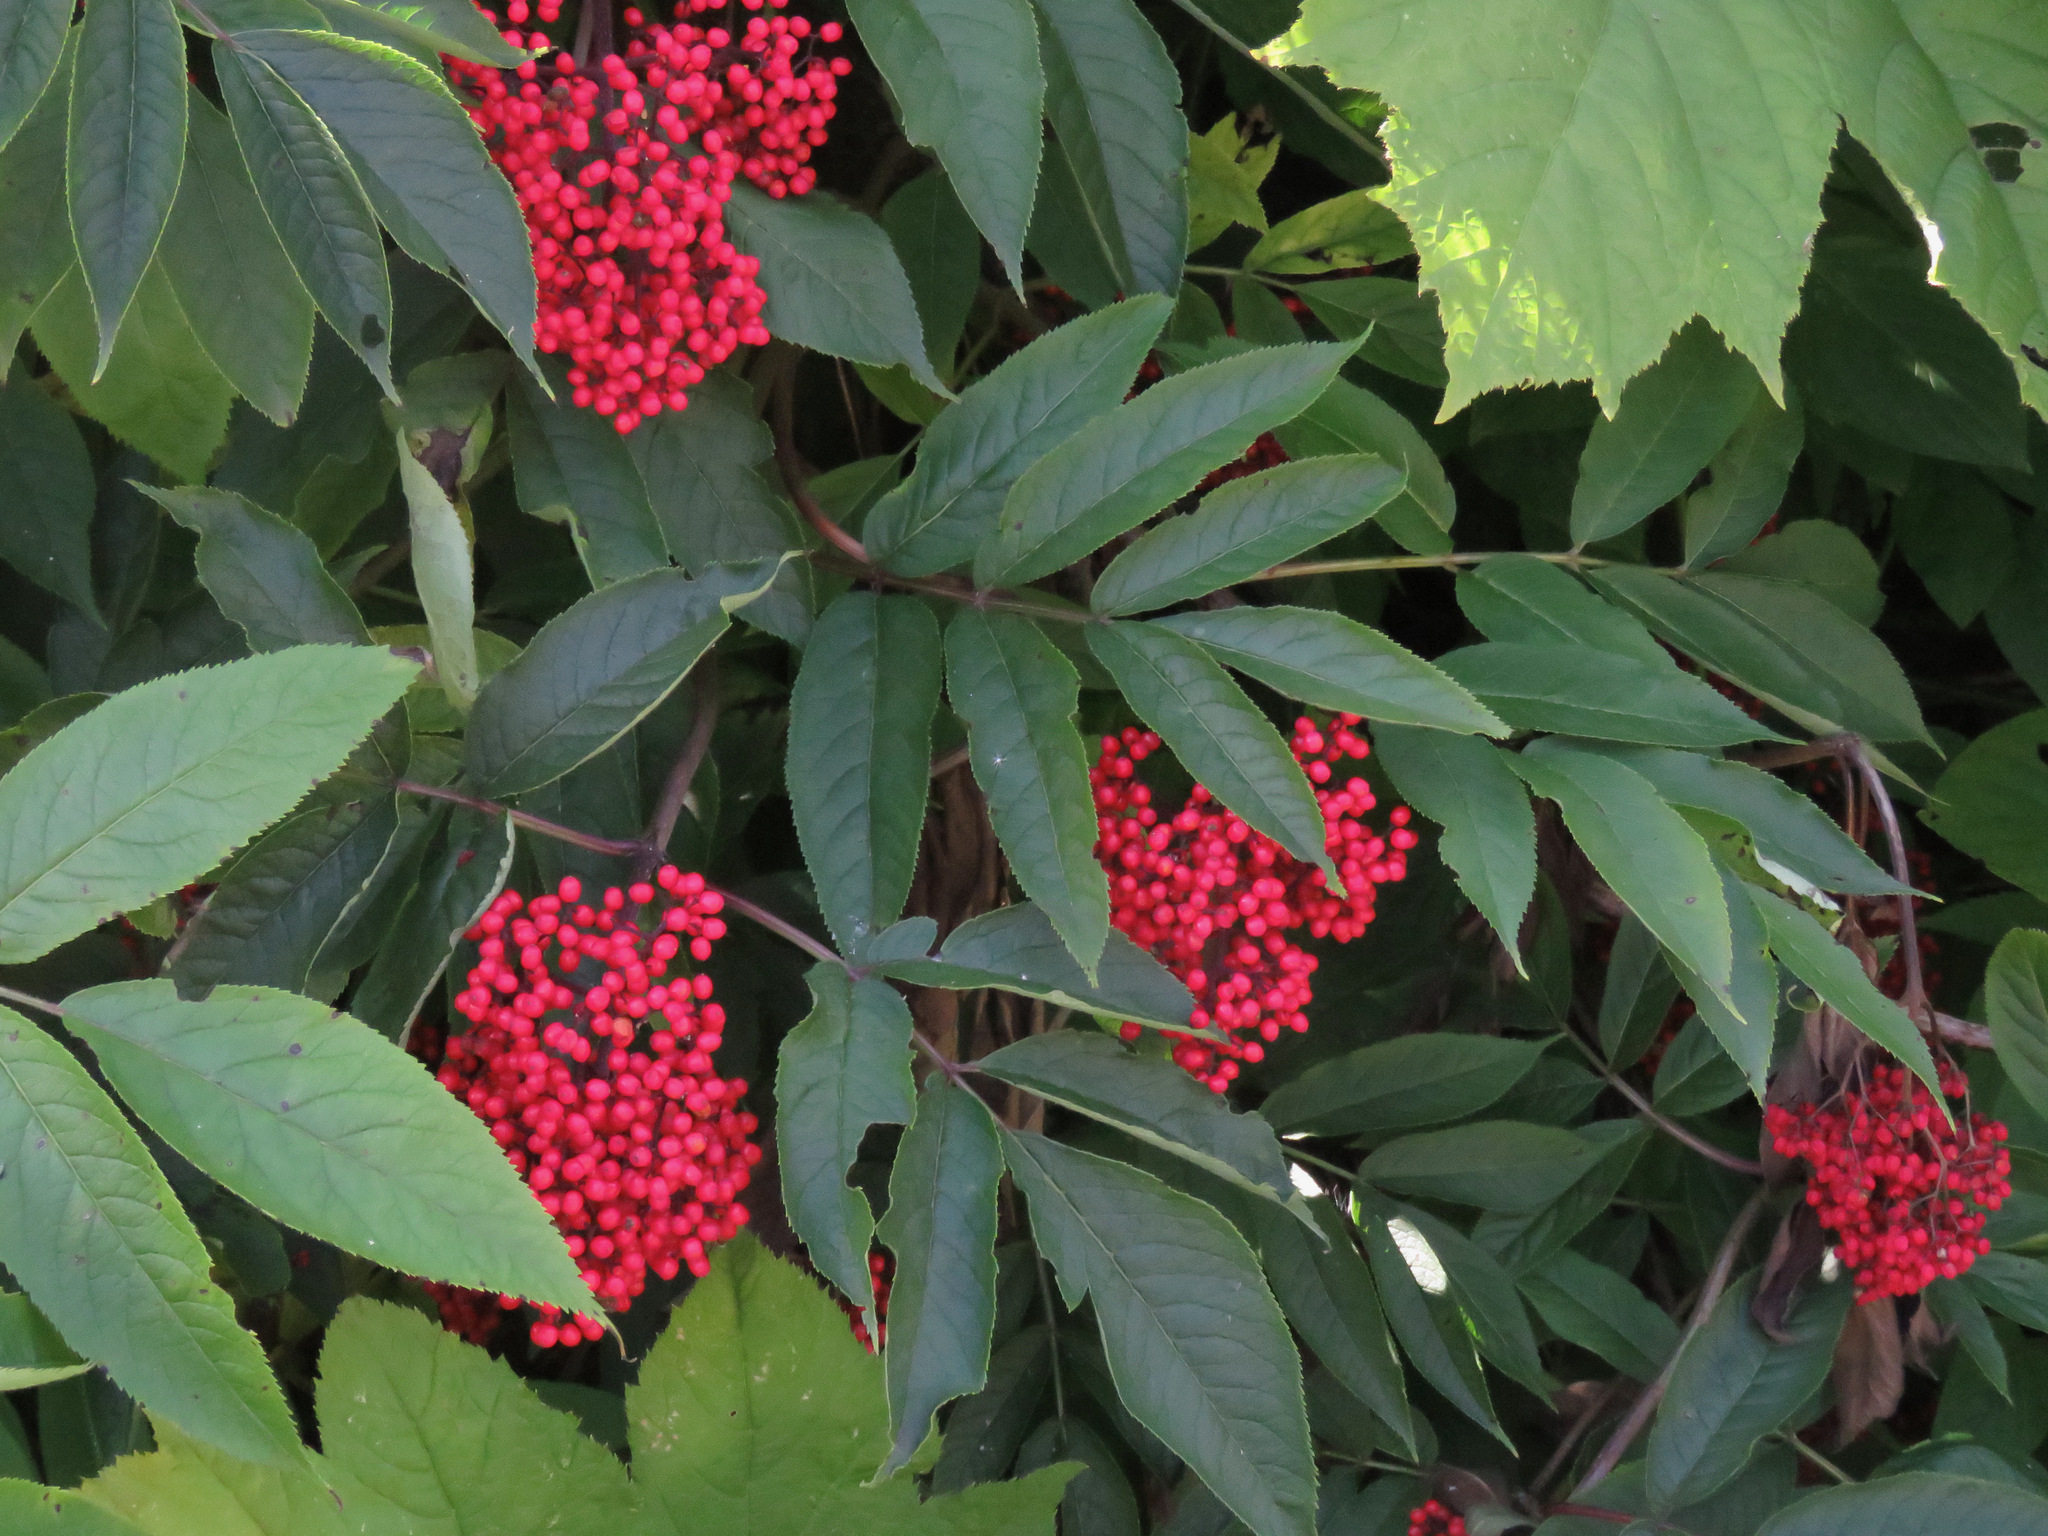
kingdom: Plantae
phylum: Tracheophyta
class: Magnoliopsida
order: Dipsacales
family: Viburnaceae
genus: Sambucus
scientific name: Sambucus racemosa
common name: Red-berried elder
